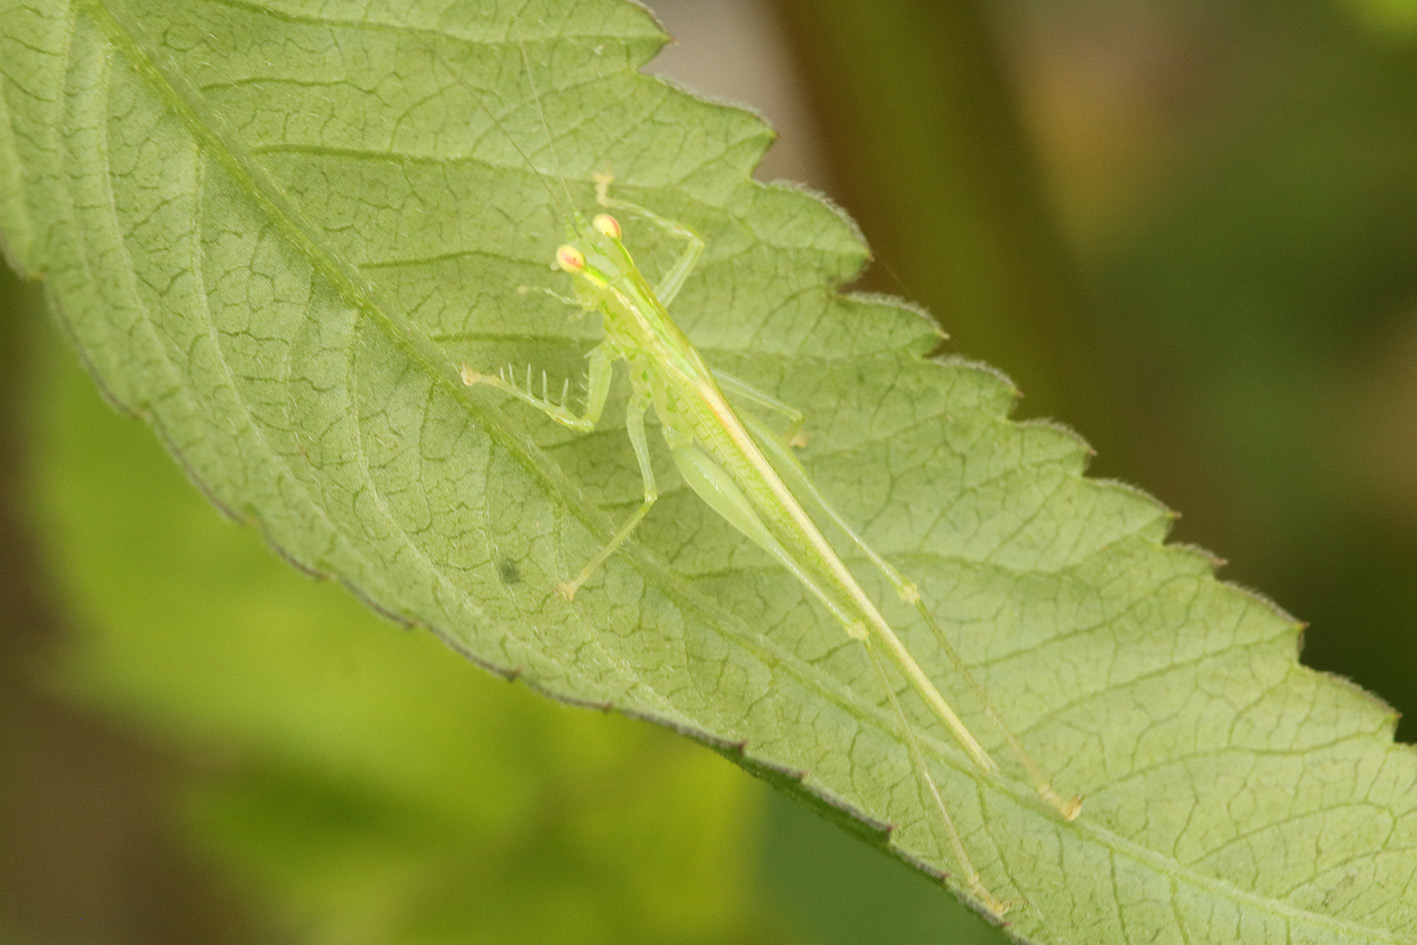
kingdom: Animalia
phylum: Arthropoda
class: Insecta
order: Orthoptera
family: Tettigoniidae
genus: Phlugis
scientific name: Phlugis proseni
